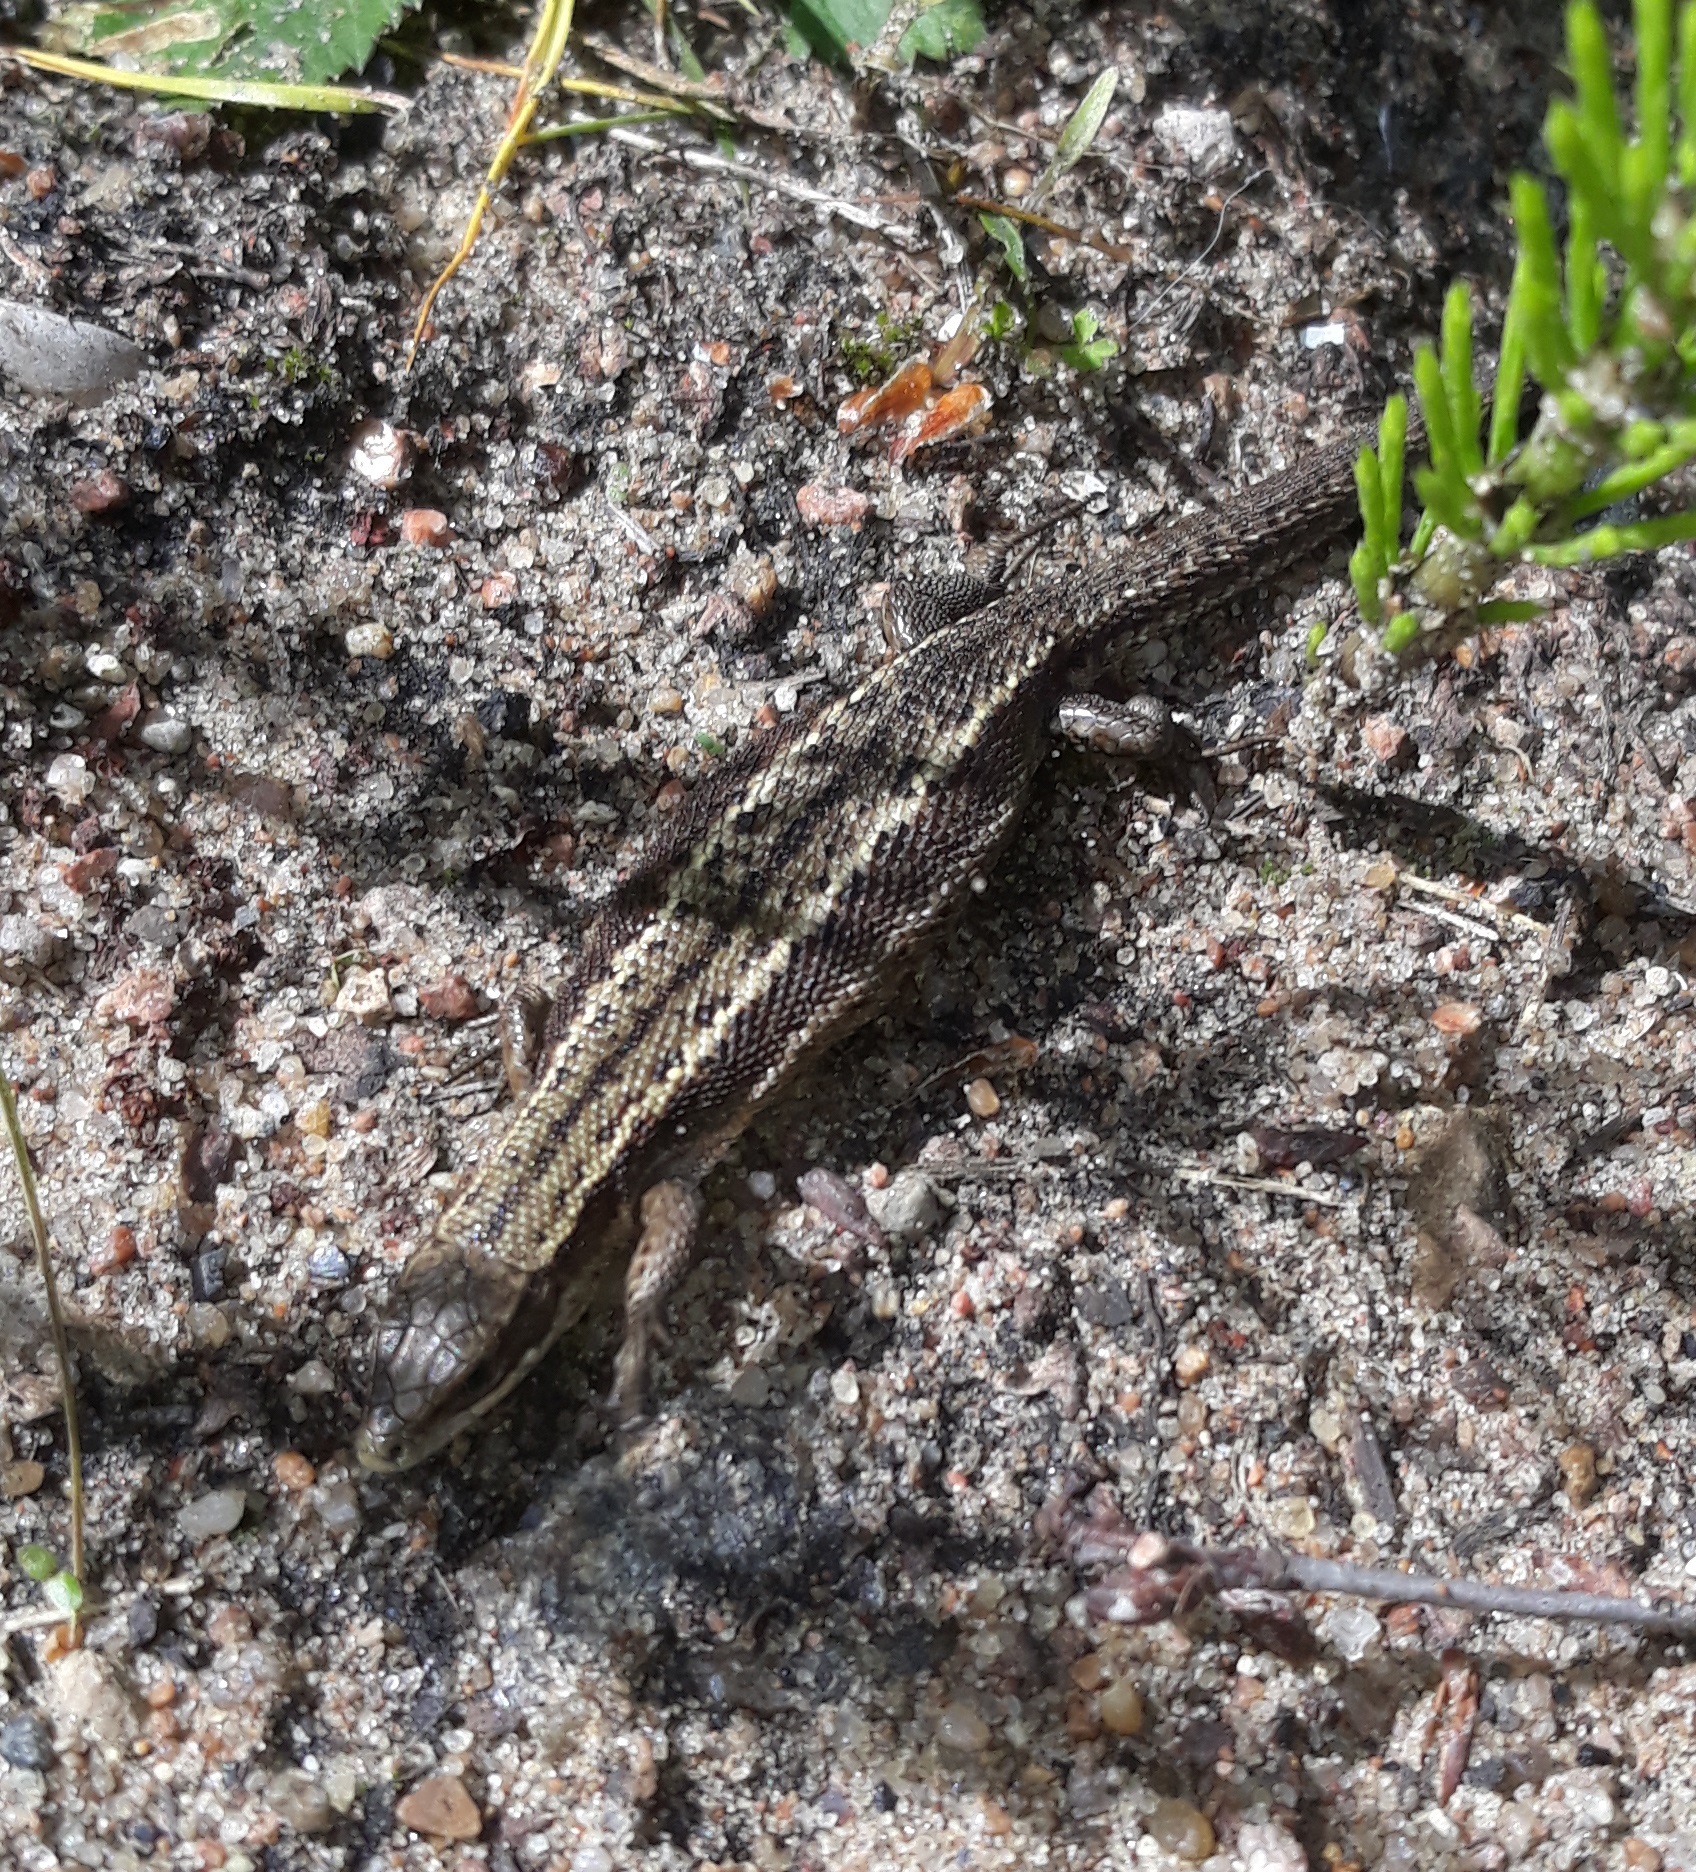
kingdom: Animalia
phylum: Chordata
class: Squamata
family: Lacertidae
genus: Zootoca
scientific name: Zootoca vivipara
